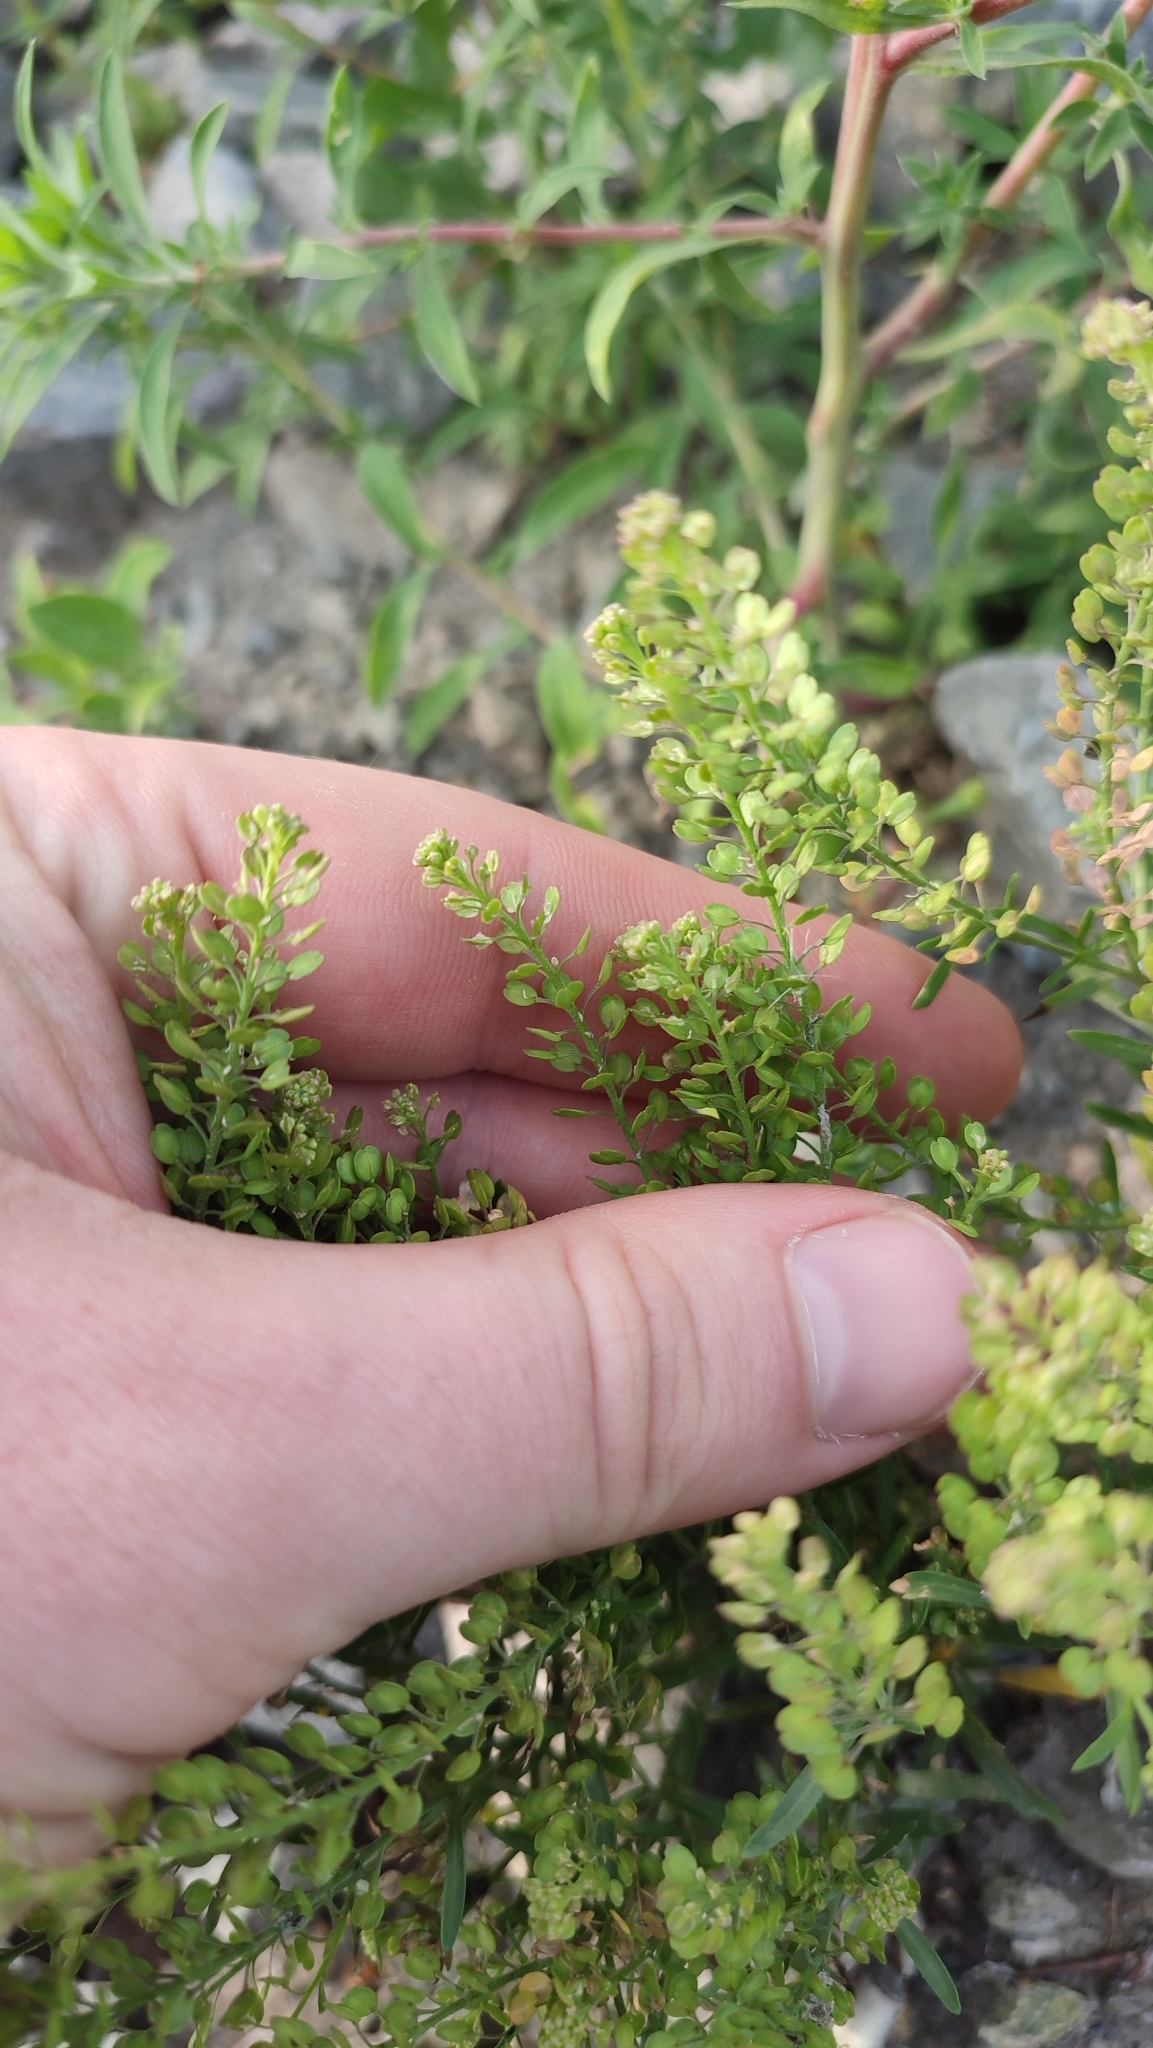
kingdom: Plantae
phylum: Tracheophyta
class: Magnoliopsida
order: Brassicales
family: Brassicaceae
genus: Lepidium
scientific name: Lepidium densiflorum
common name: Miner's pepperwort
